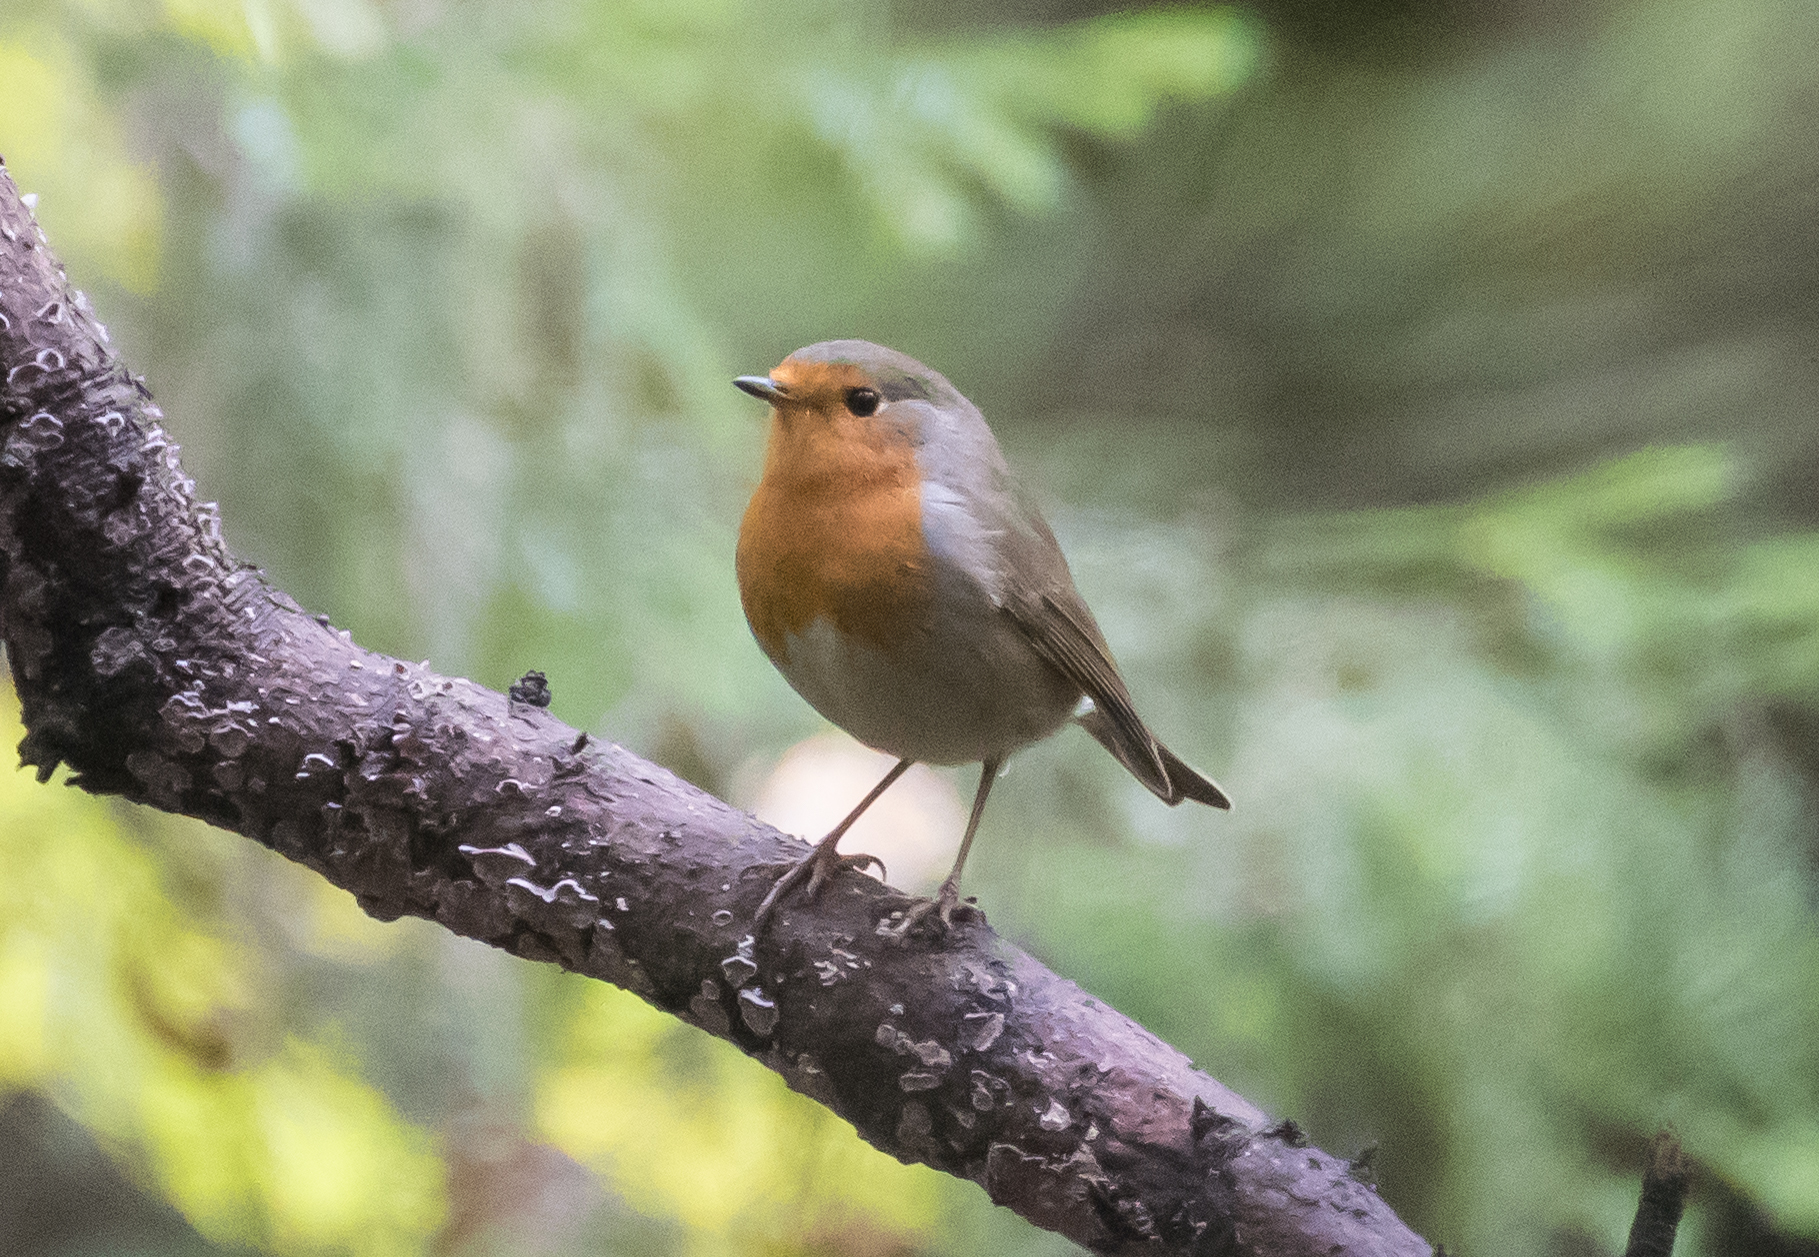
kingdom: Animalia
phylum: Chordata
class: Aves
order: Passeriformes
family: Muscicapidae
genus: Erithacus
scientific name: Erithacus rubecula
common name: European robin
